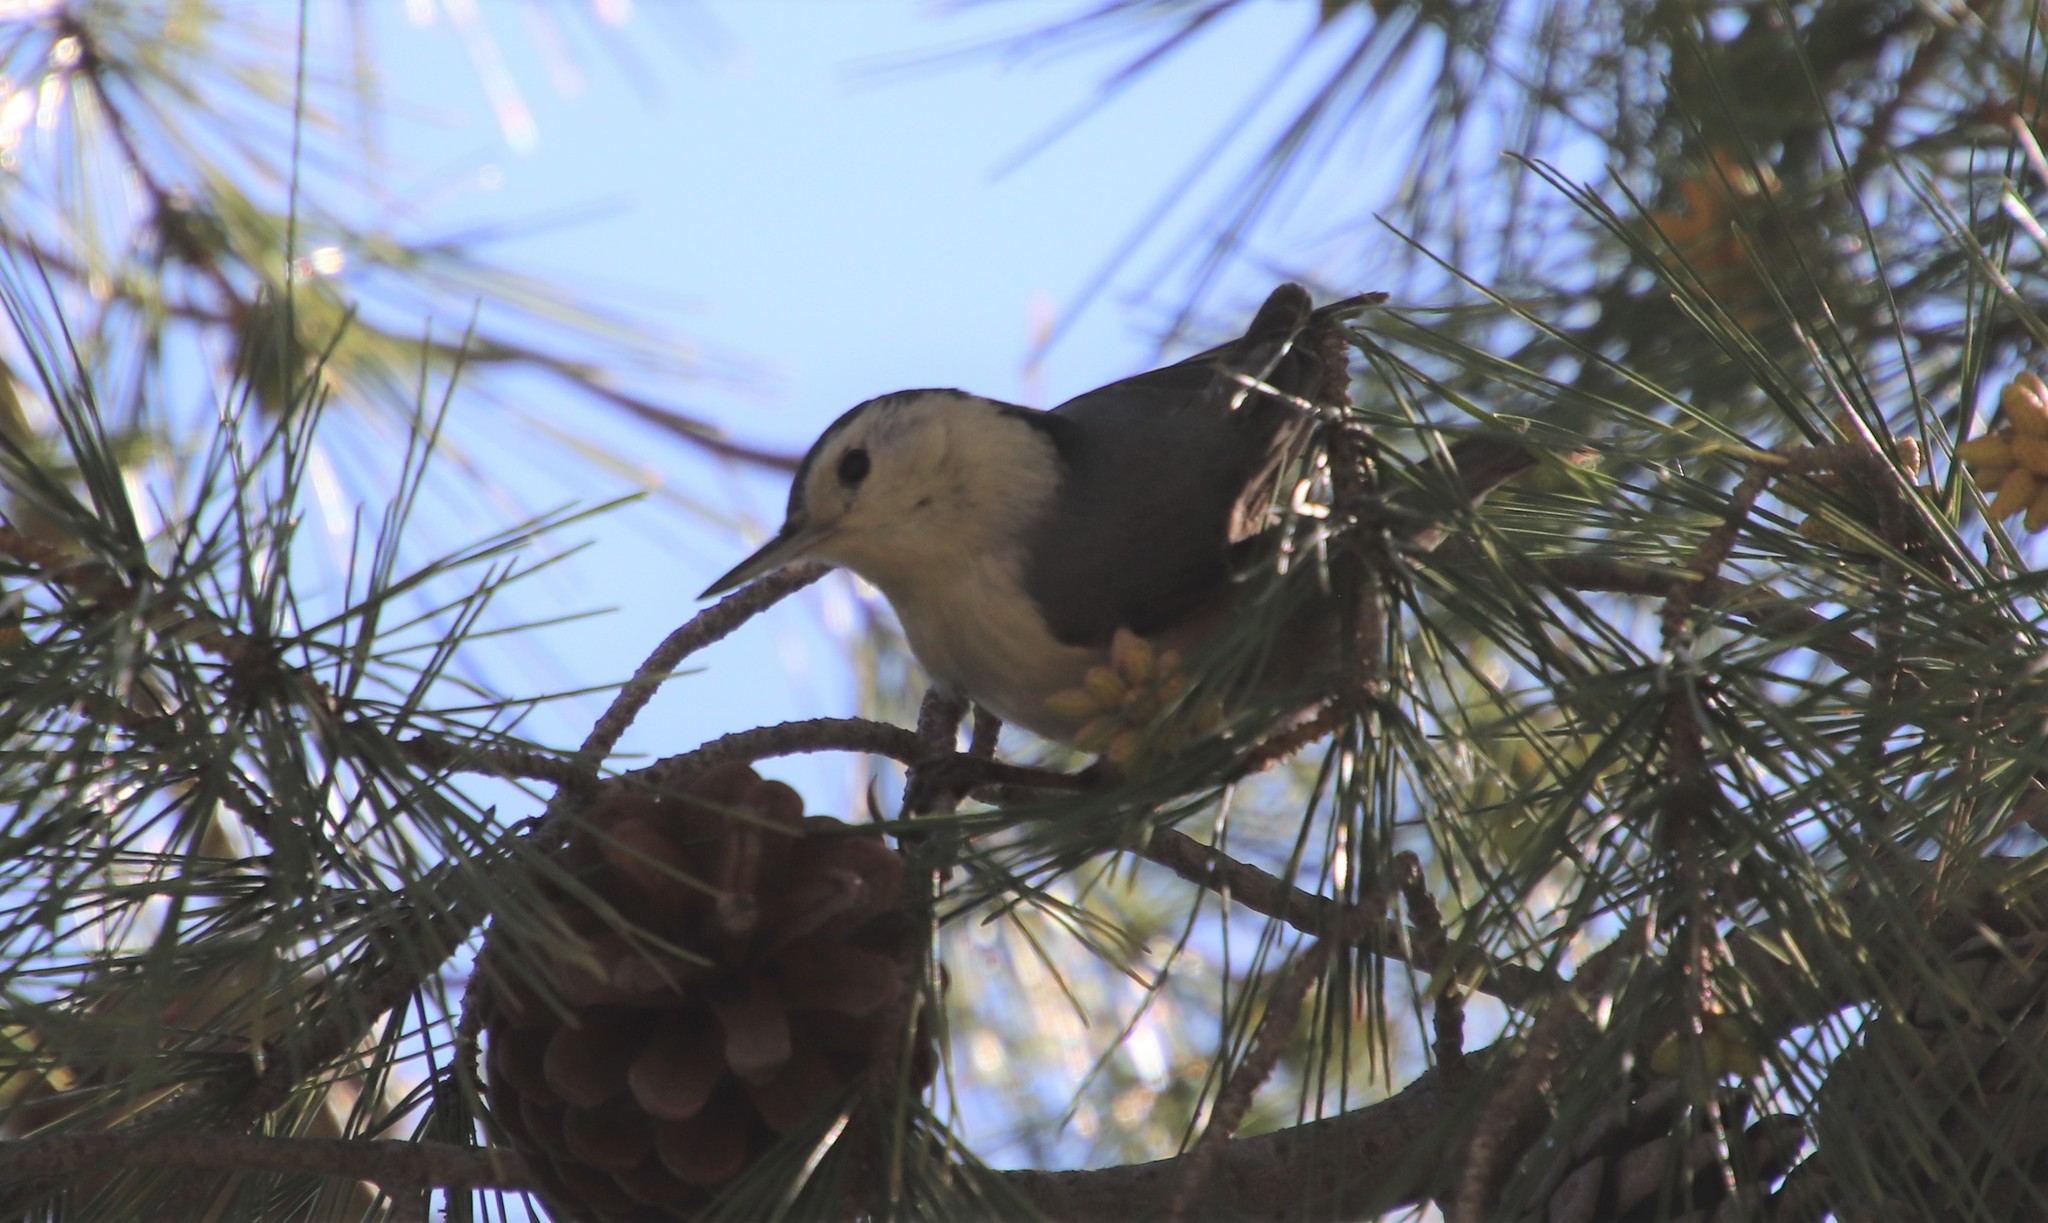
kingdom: Animalia
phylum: Chordata
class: Aves
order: Passeriformes
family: Sittidae
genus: Sitta
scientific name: Sitta carolinensis
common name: White-breasted nuthatch
